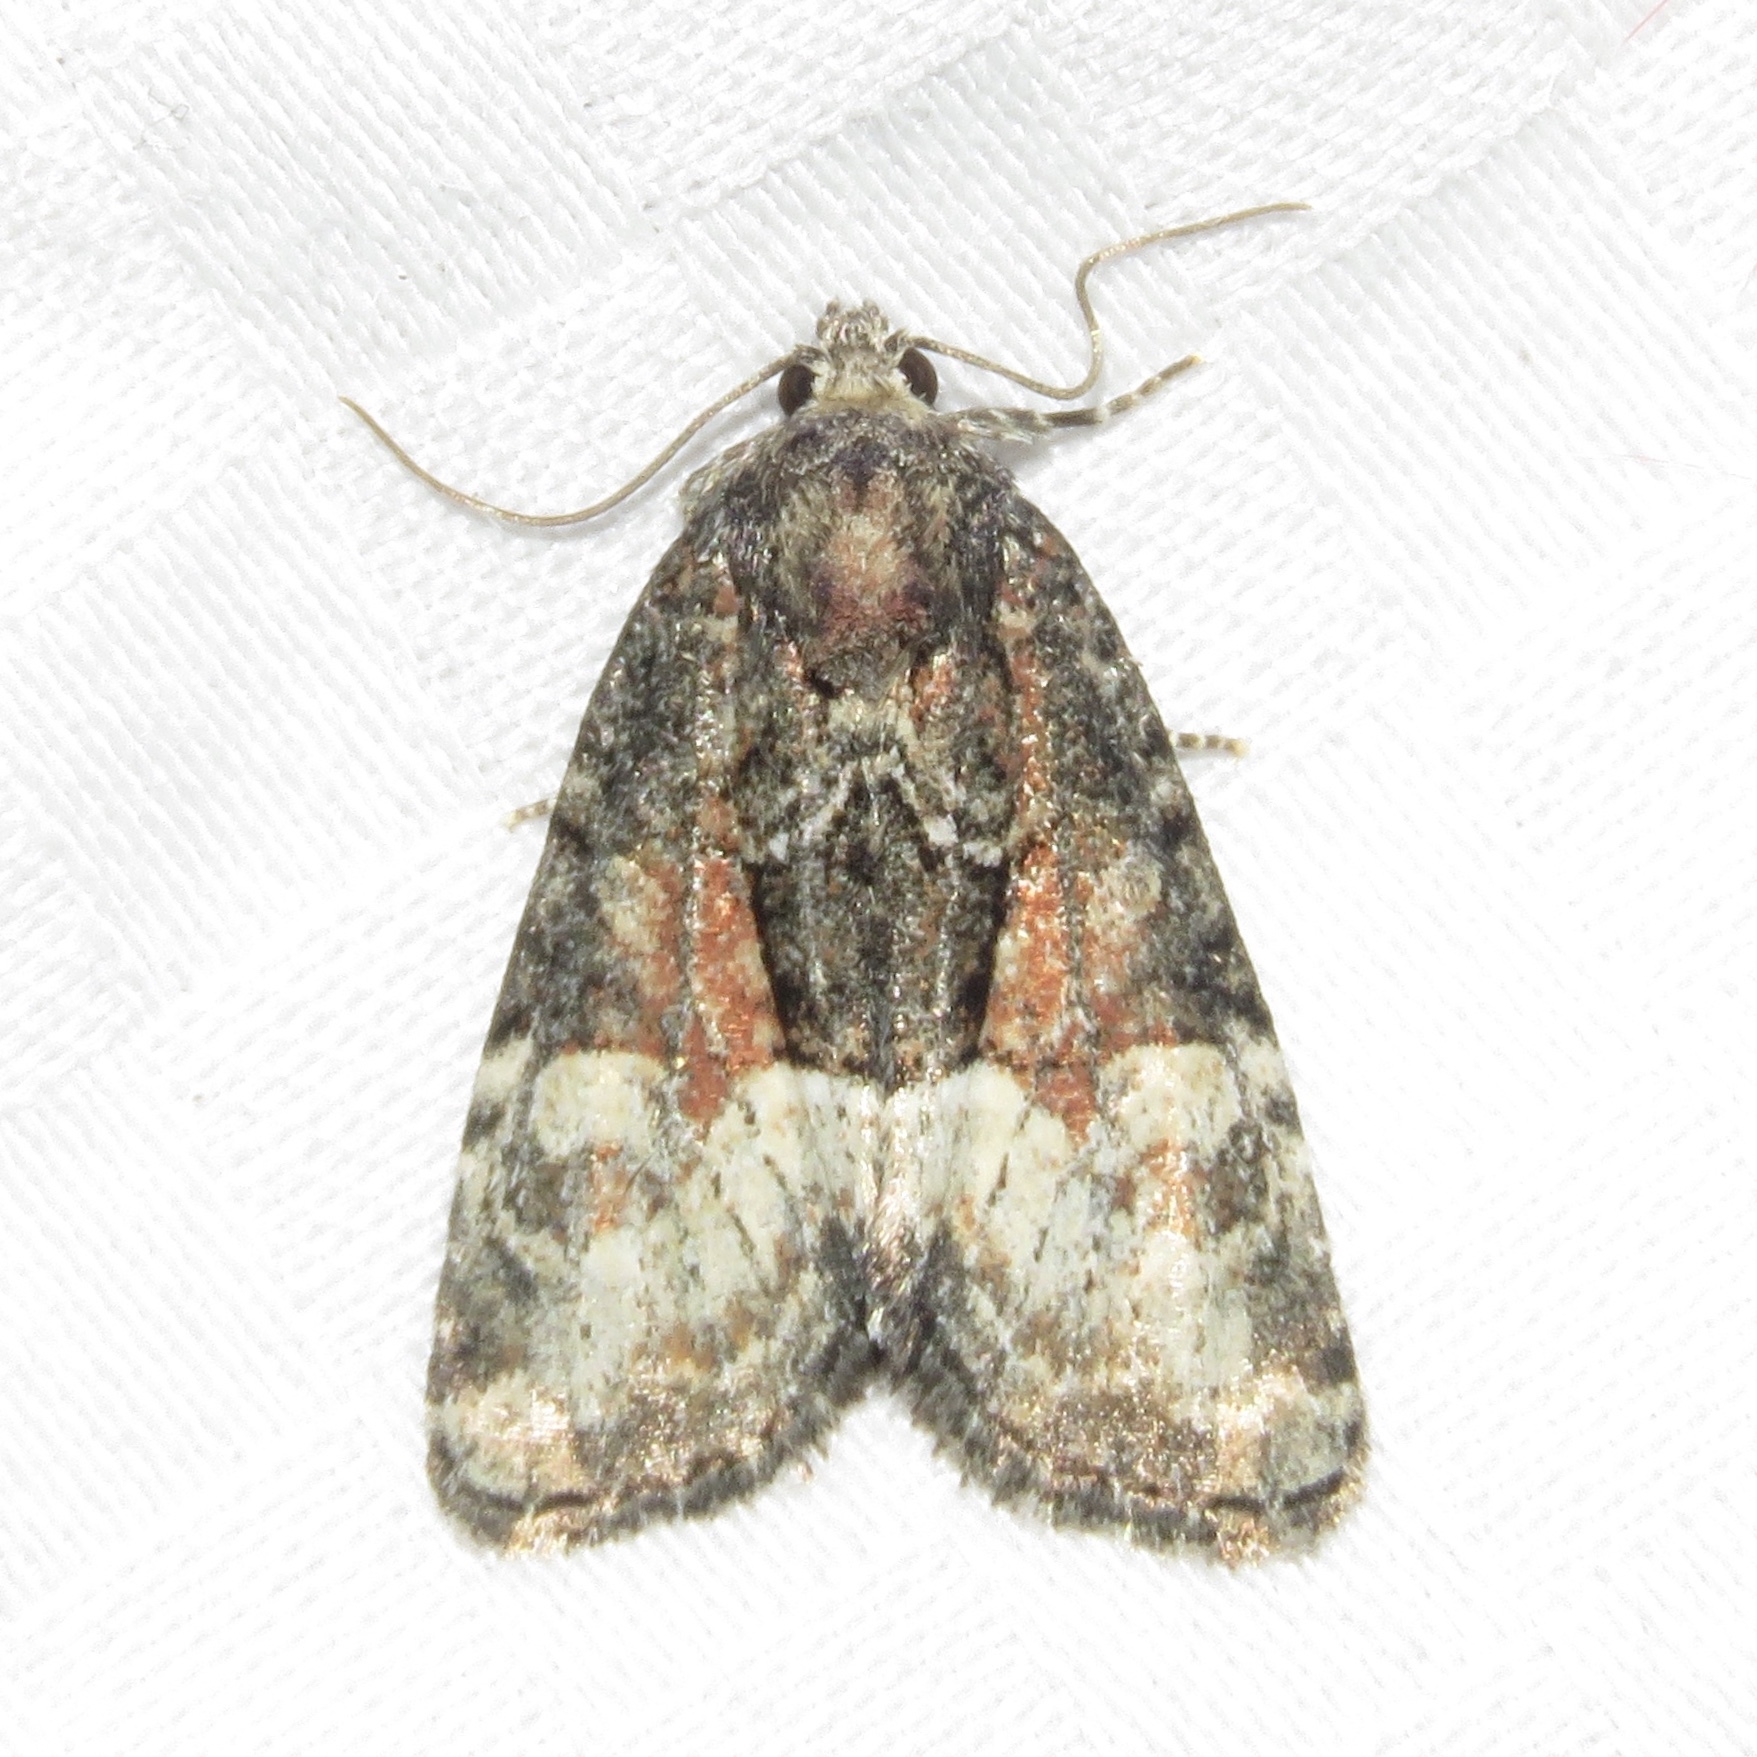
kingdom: Animalia
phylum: Arthropoda
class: Insecta
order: Lepidoptera
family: Noctuidae
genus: Neoligia
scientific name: Neoligia subjuncta
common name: Connected brocade
